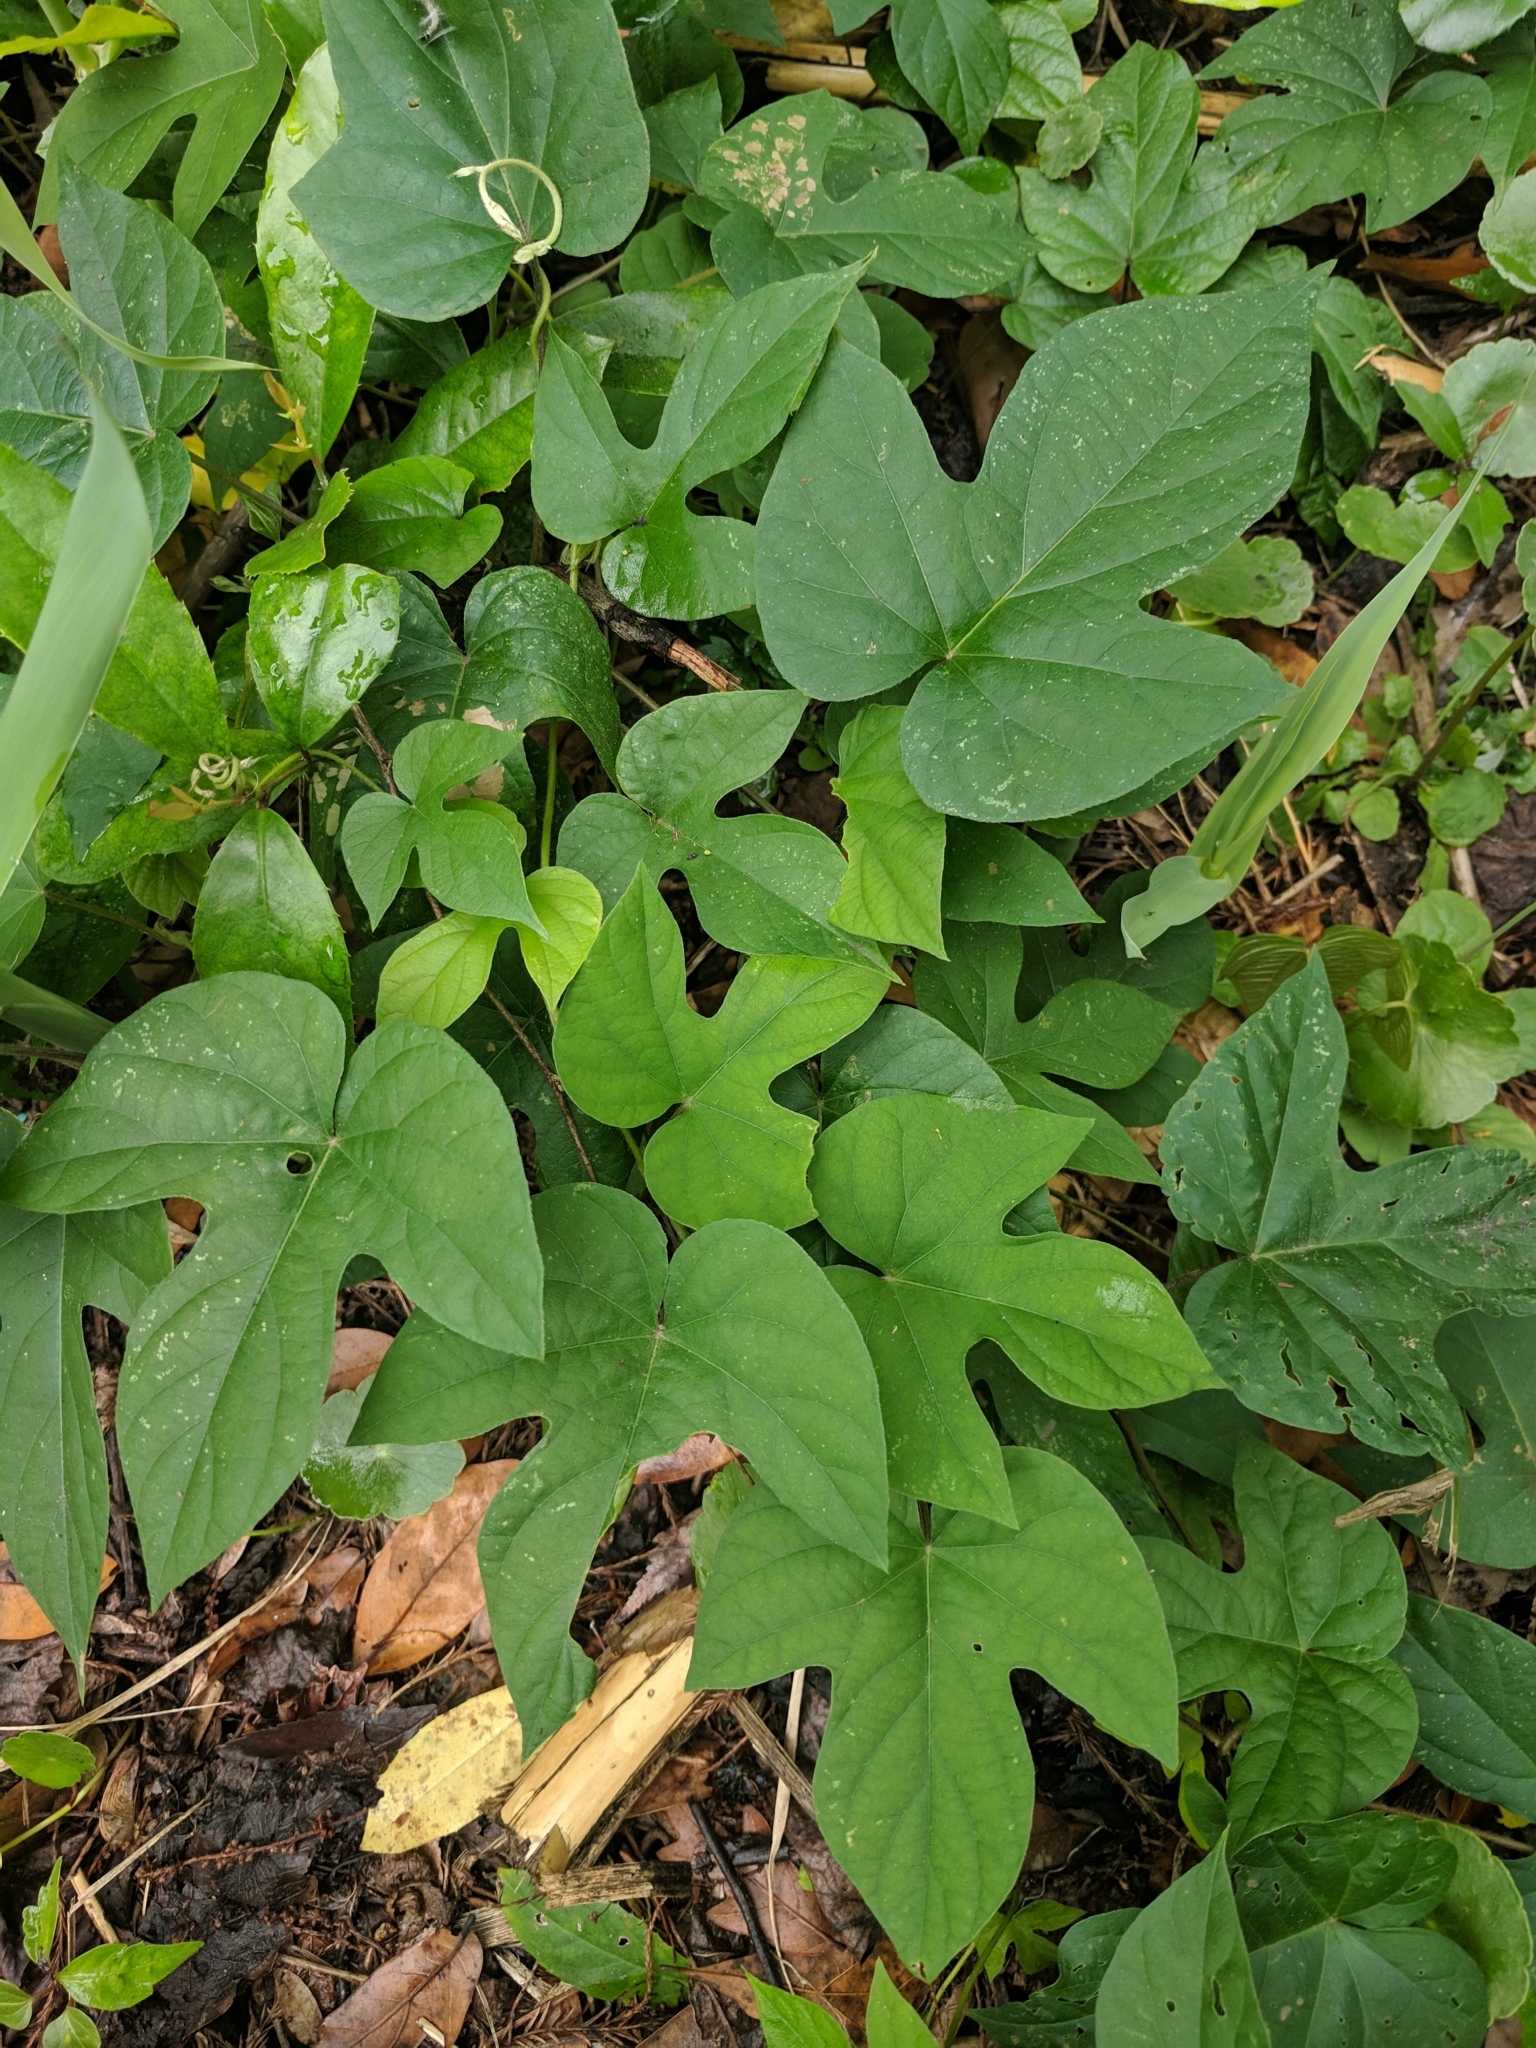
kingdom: Plantae
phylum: Tracheophyta
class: Magnoliopsida
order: Solanales
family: Convolvulaceae
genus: Ipomoea
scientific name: Ipomoea hederacea
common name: Ivy-leaved morning-glory
